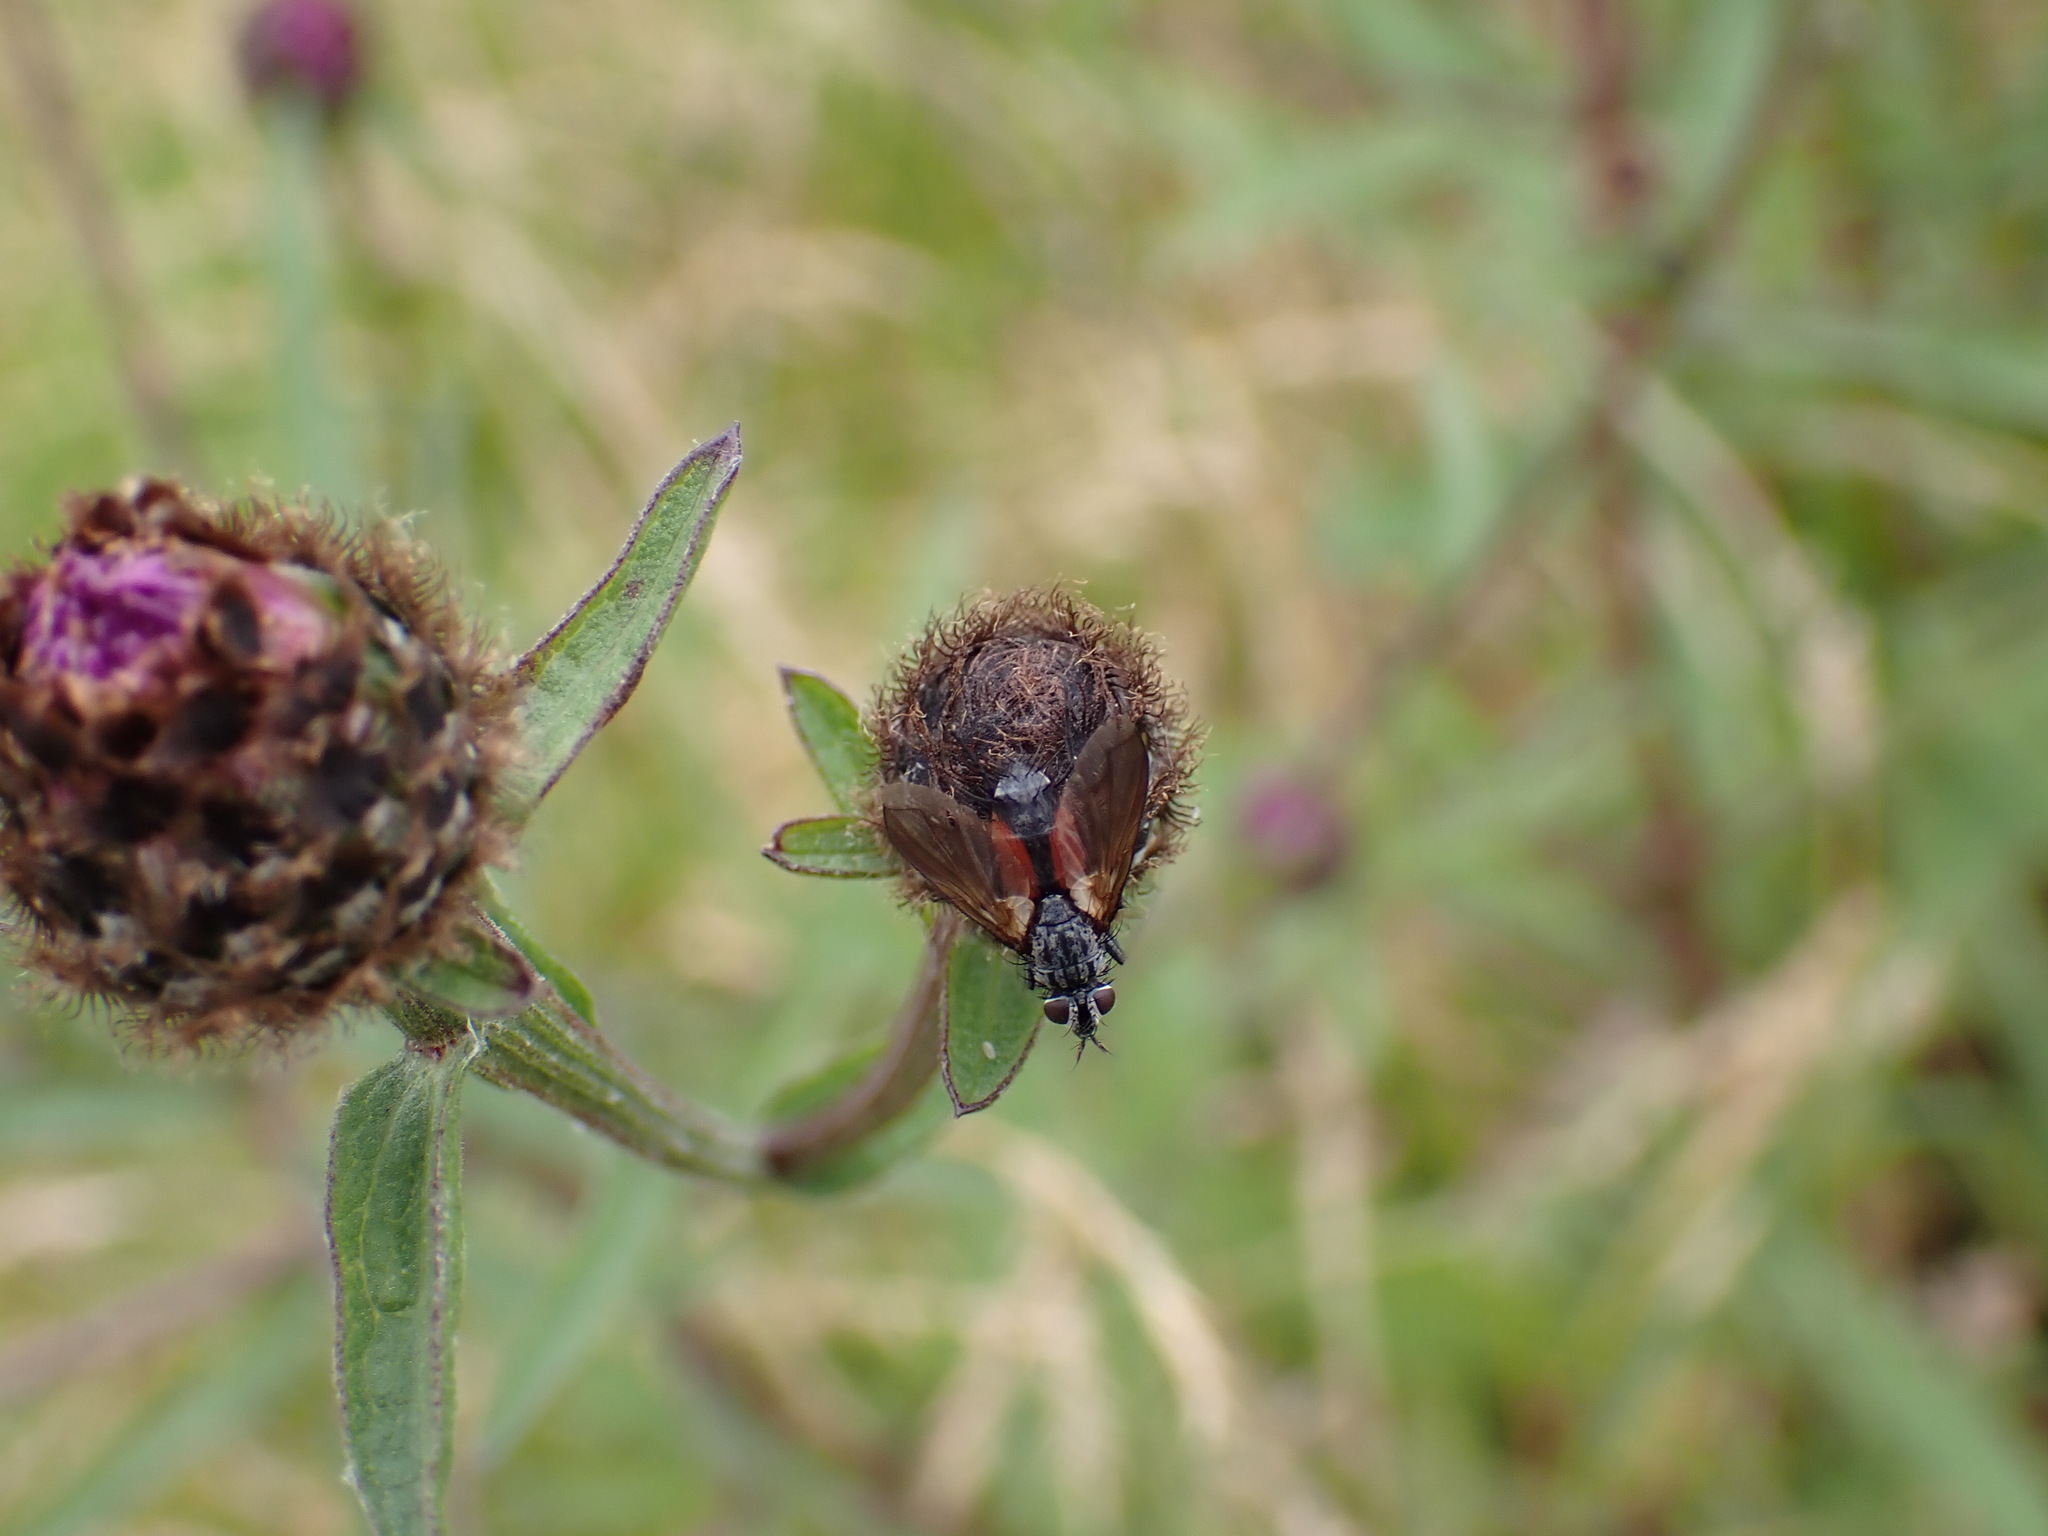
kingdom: Animalia
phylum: Arthropoda
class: Insecta
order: Diptera
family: Tachinidae
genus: Eriothrix
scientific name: Eriothrix rufomaculatus
